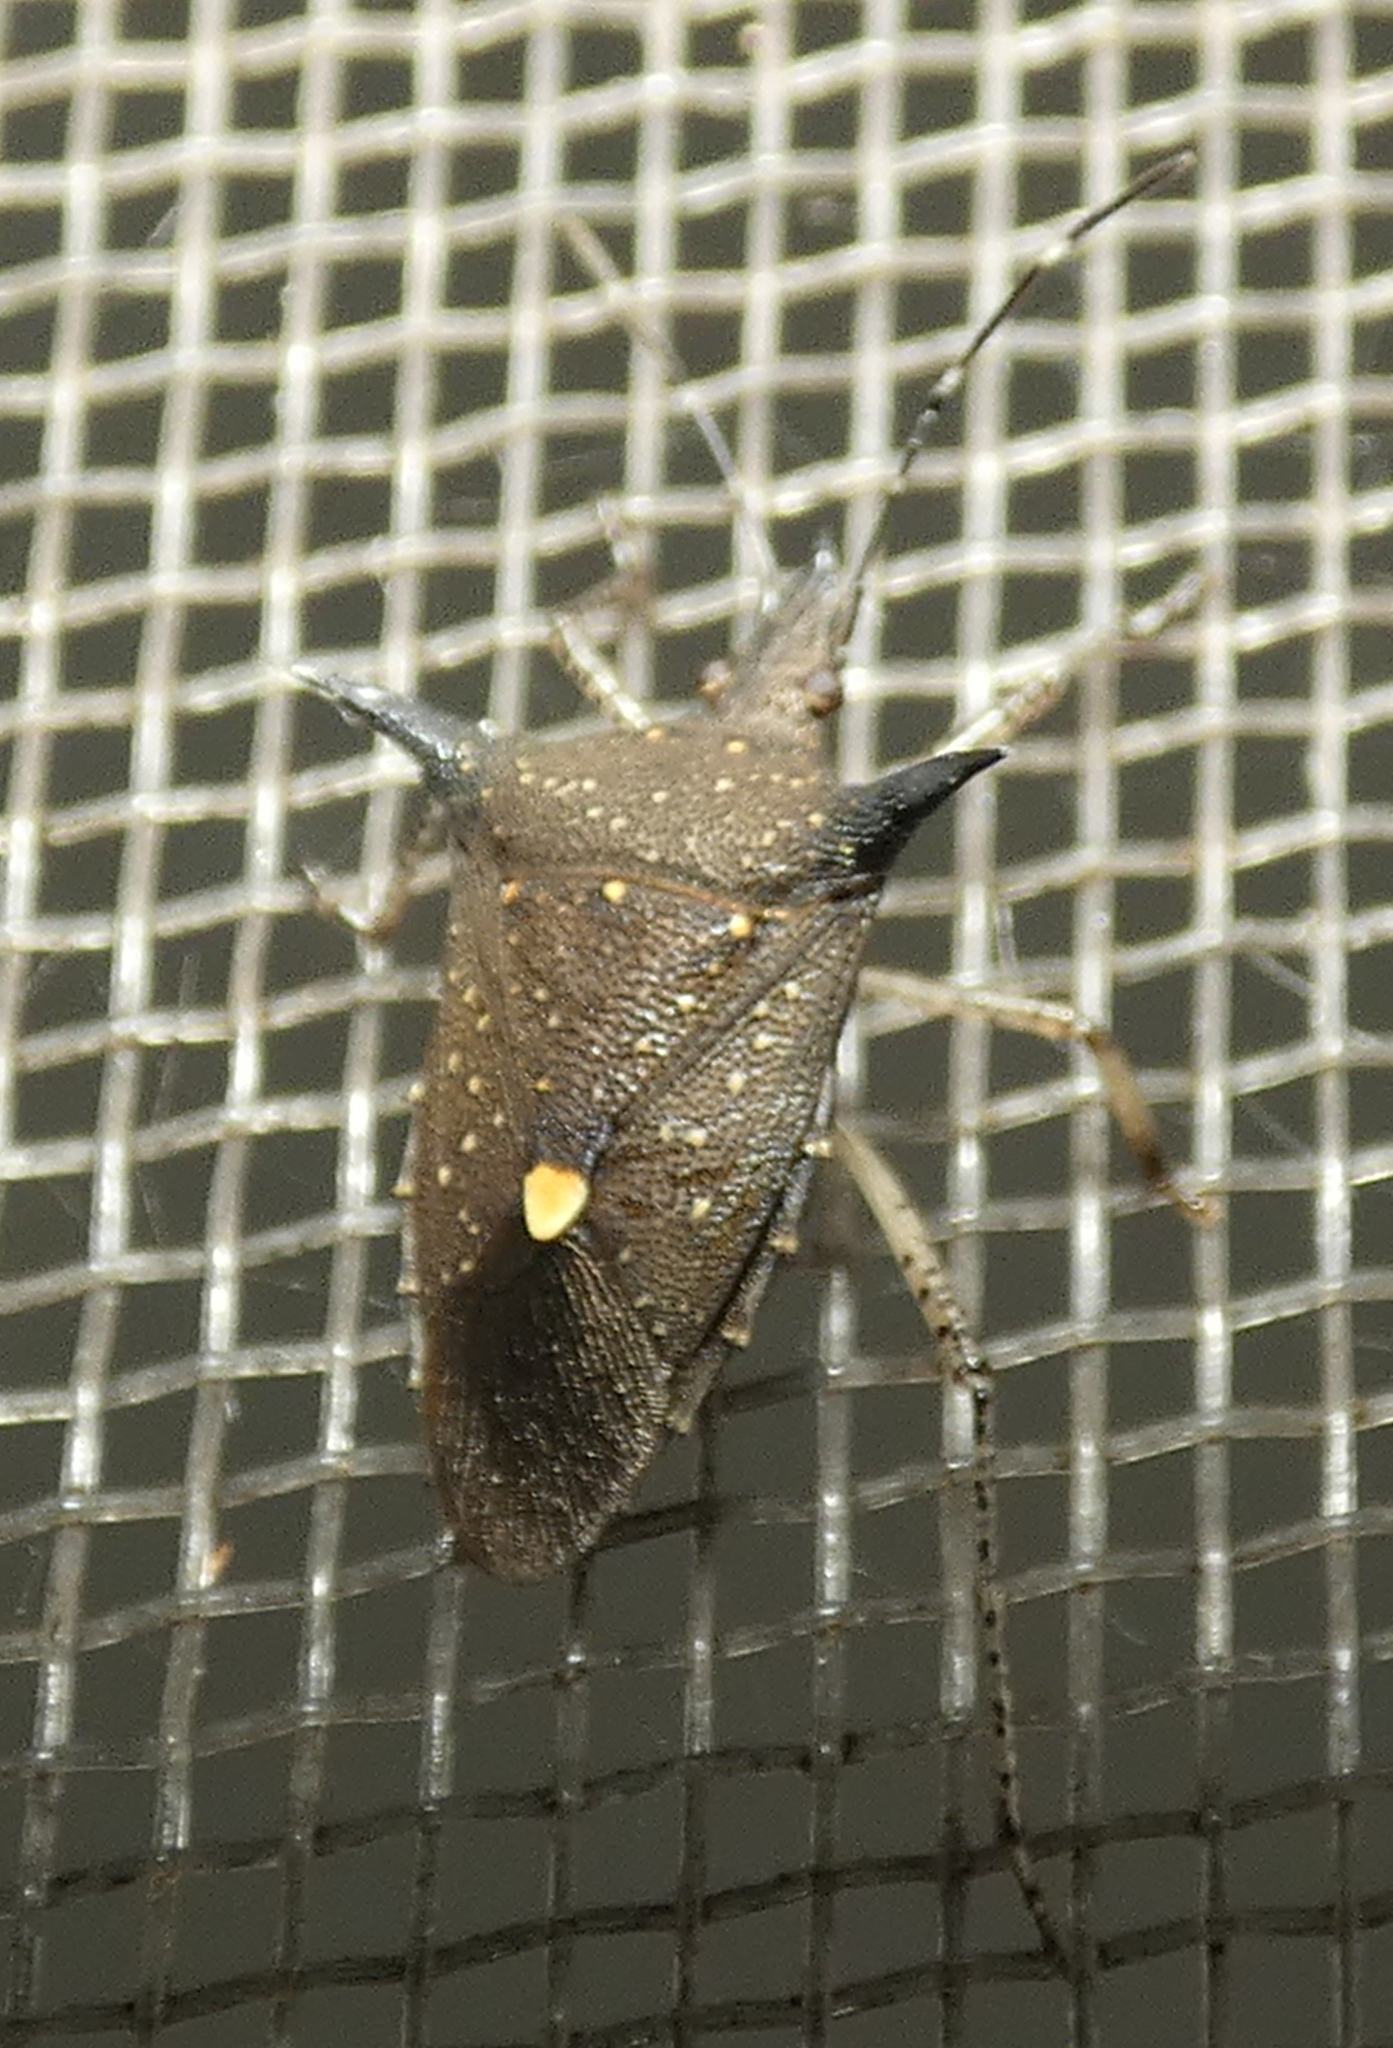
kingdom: Animalia
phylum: Arthropoda
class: Insecta
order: Hemiptera
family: Pentatomidae
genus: Proxys
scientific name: Proxys albopunctulatus
